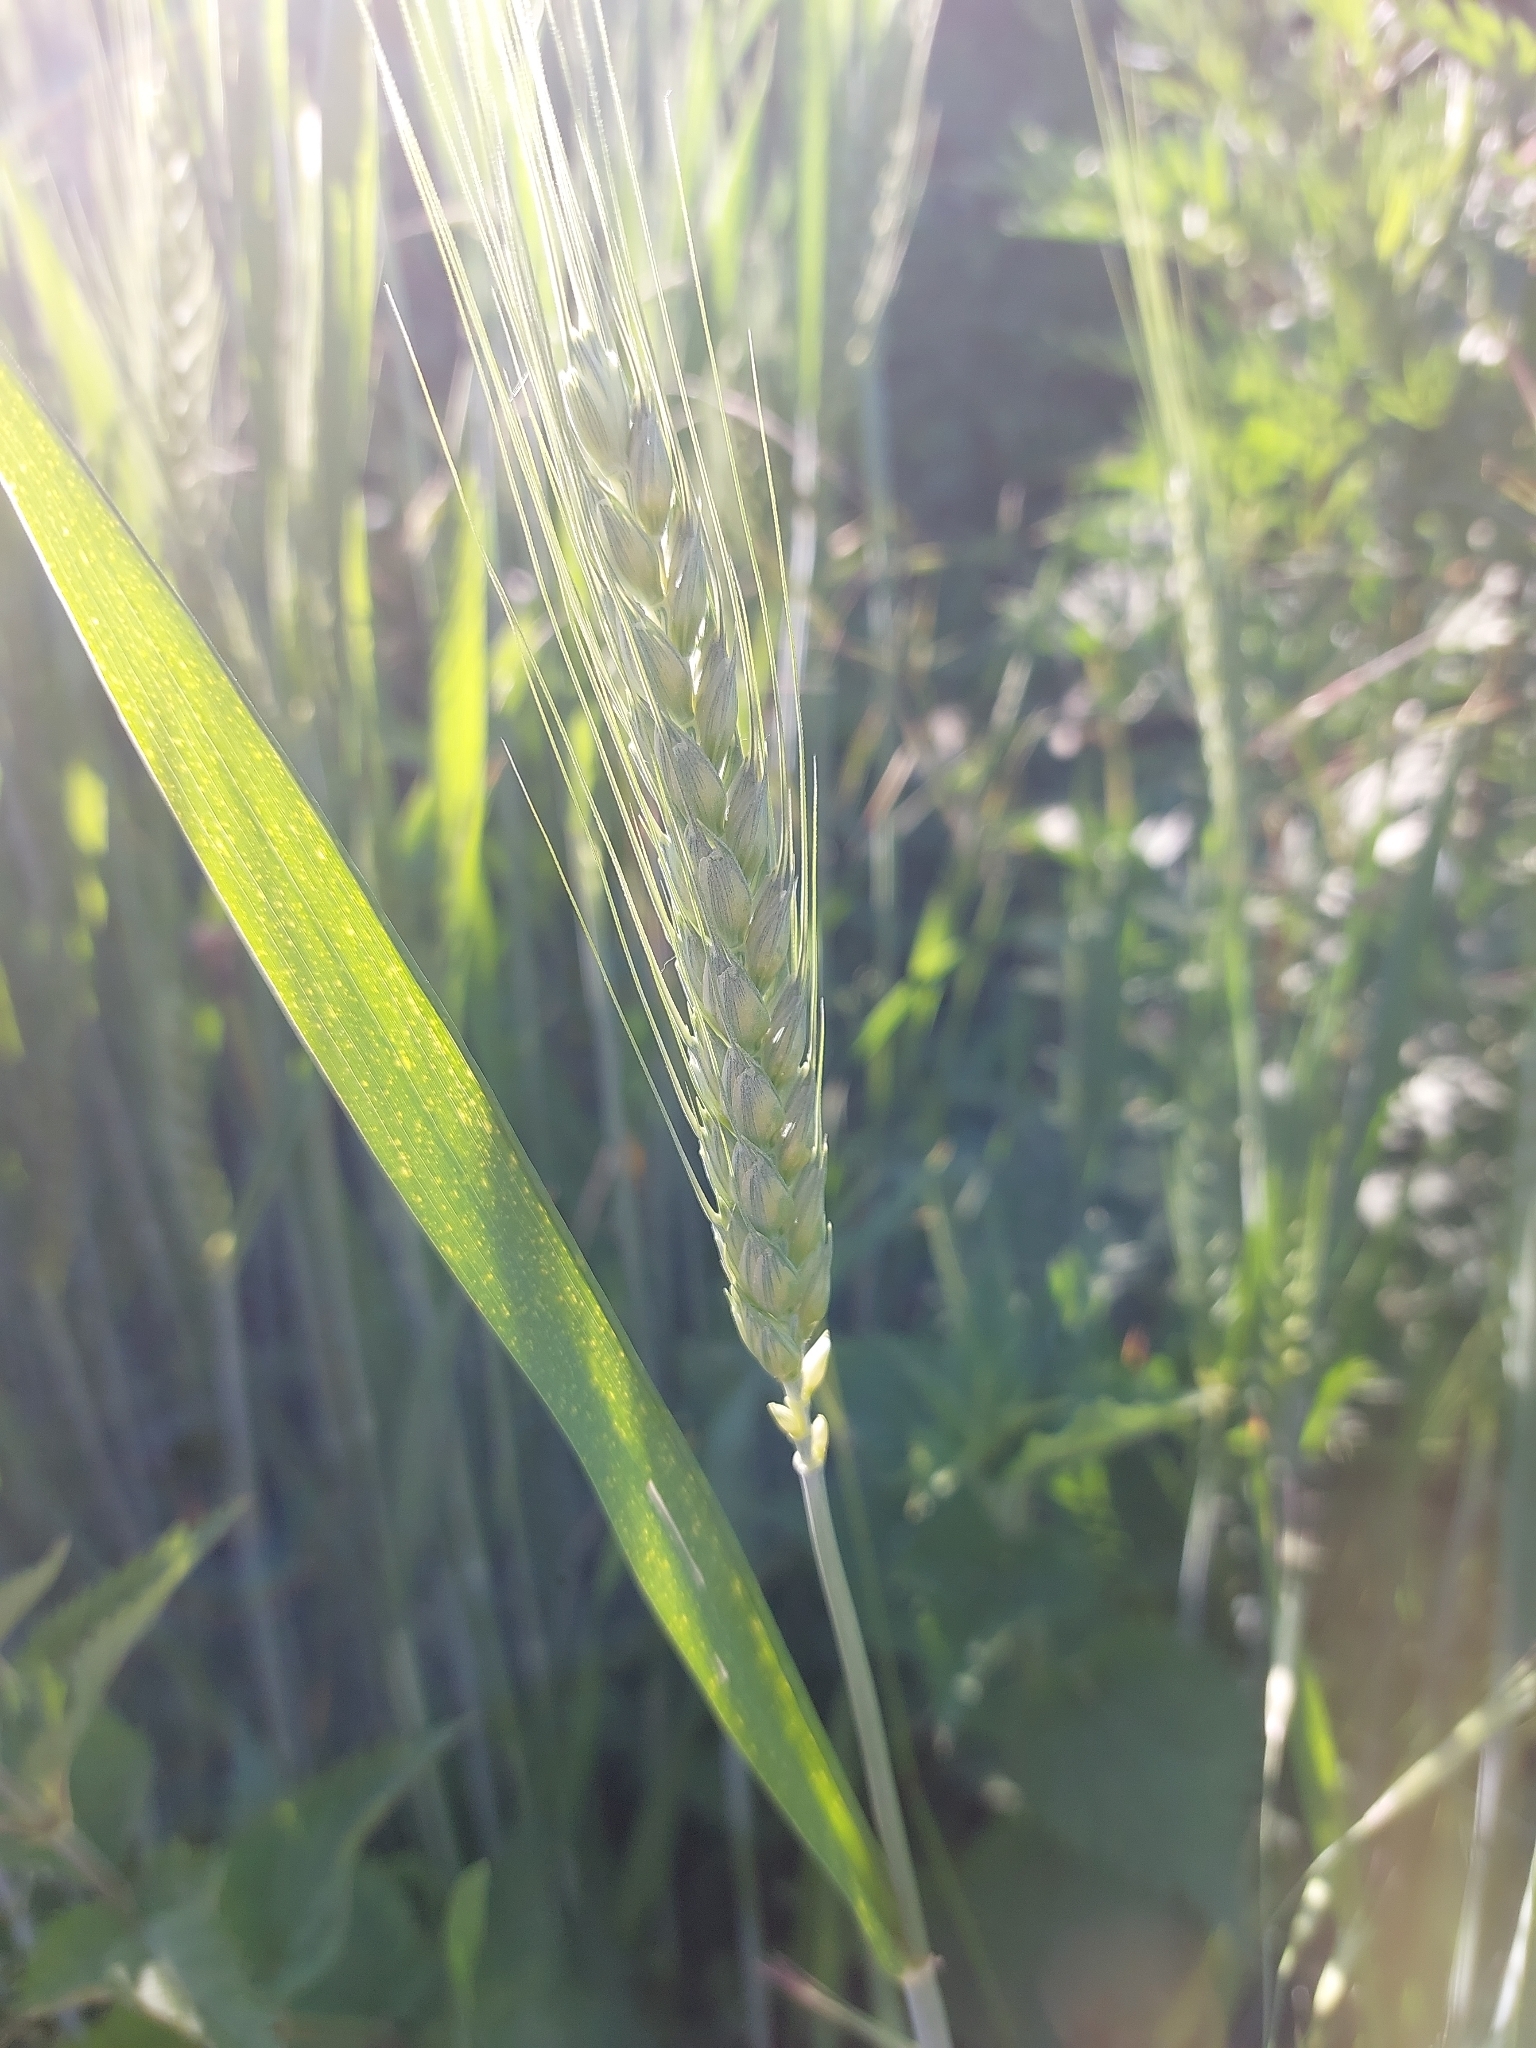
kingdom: Plantae
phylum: Tracheophyta
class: Liliopsida
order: Poales
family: Poaceae
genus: Triticum
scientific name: Triticum aestivum
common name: Common wheat
